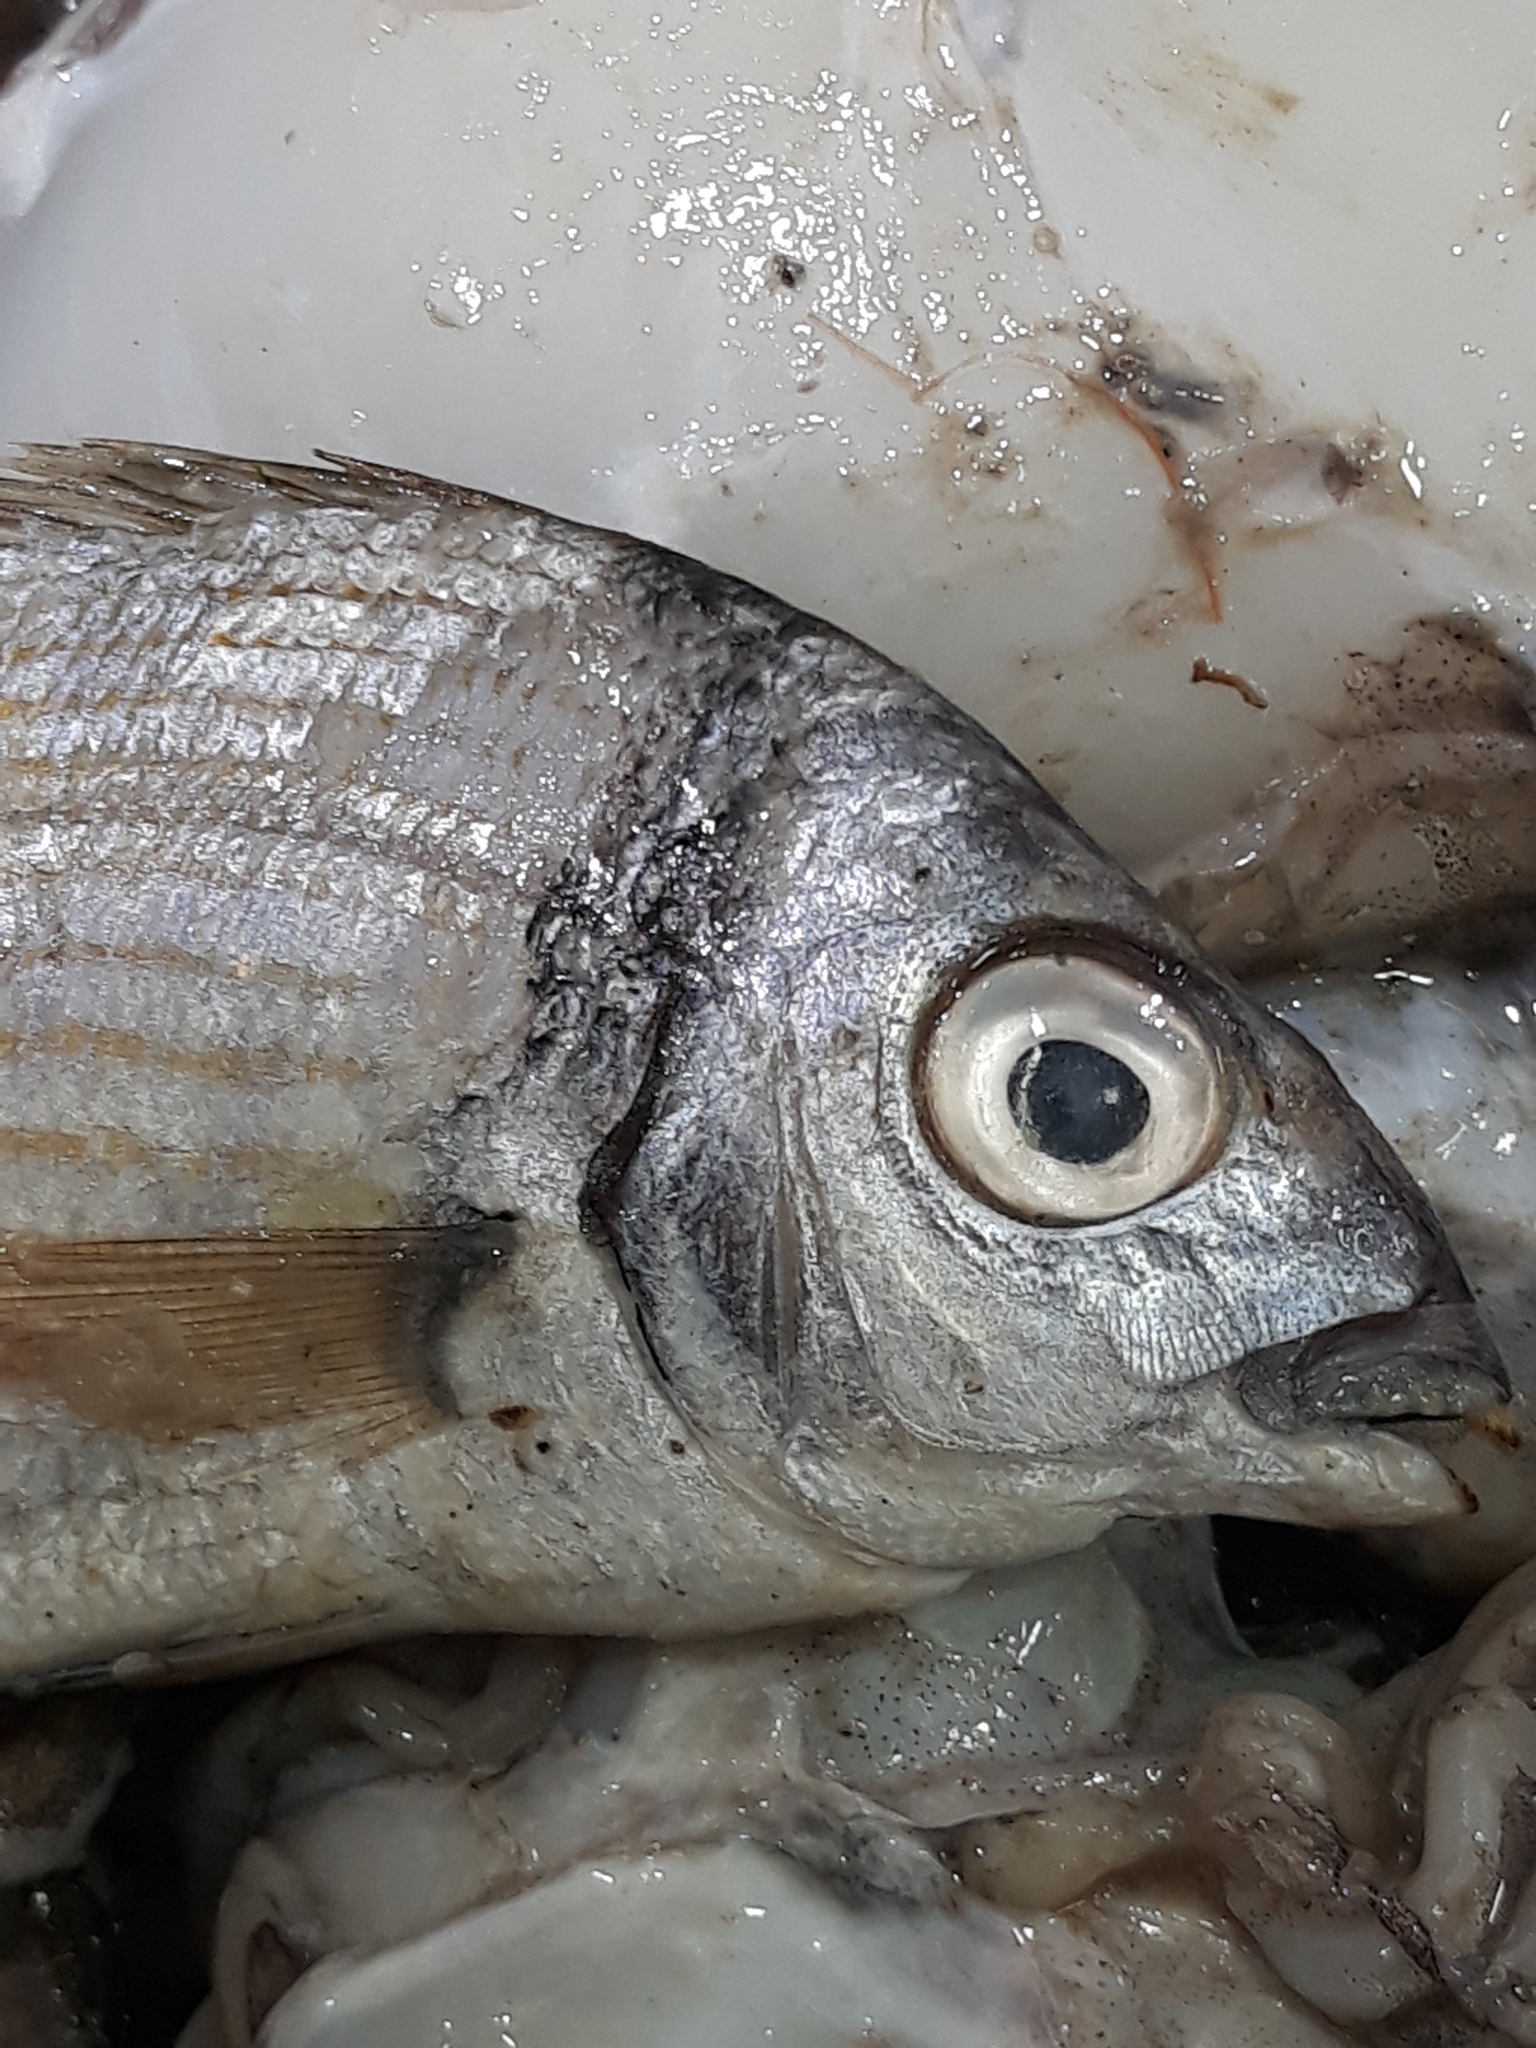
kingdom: Animalia
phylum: Chordata
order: Perciformes
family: Sparidae
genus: Diplodus
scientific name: Diplodus vulgaris
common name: Common two-banded seabream
